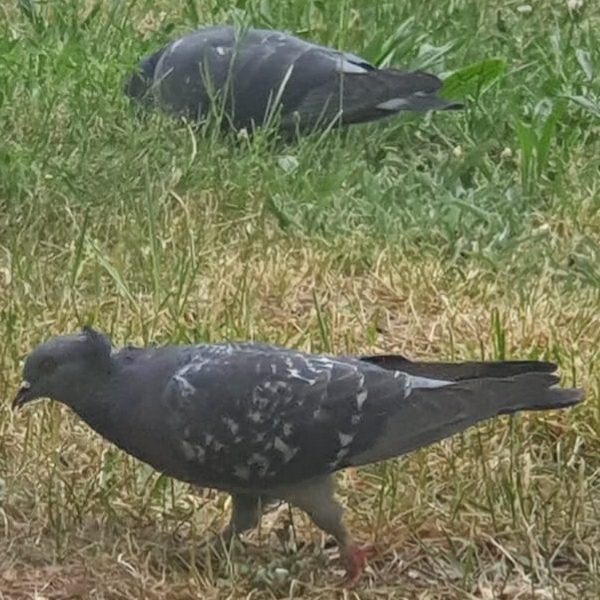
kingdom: Animalia
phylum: Chordata
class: Aves
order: Columbiformes
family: Columbidae
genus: Columba
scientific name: Columba livia
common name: Rock pigeon
